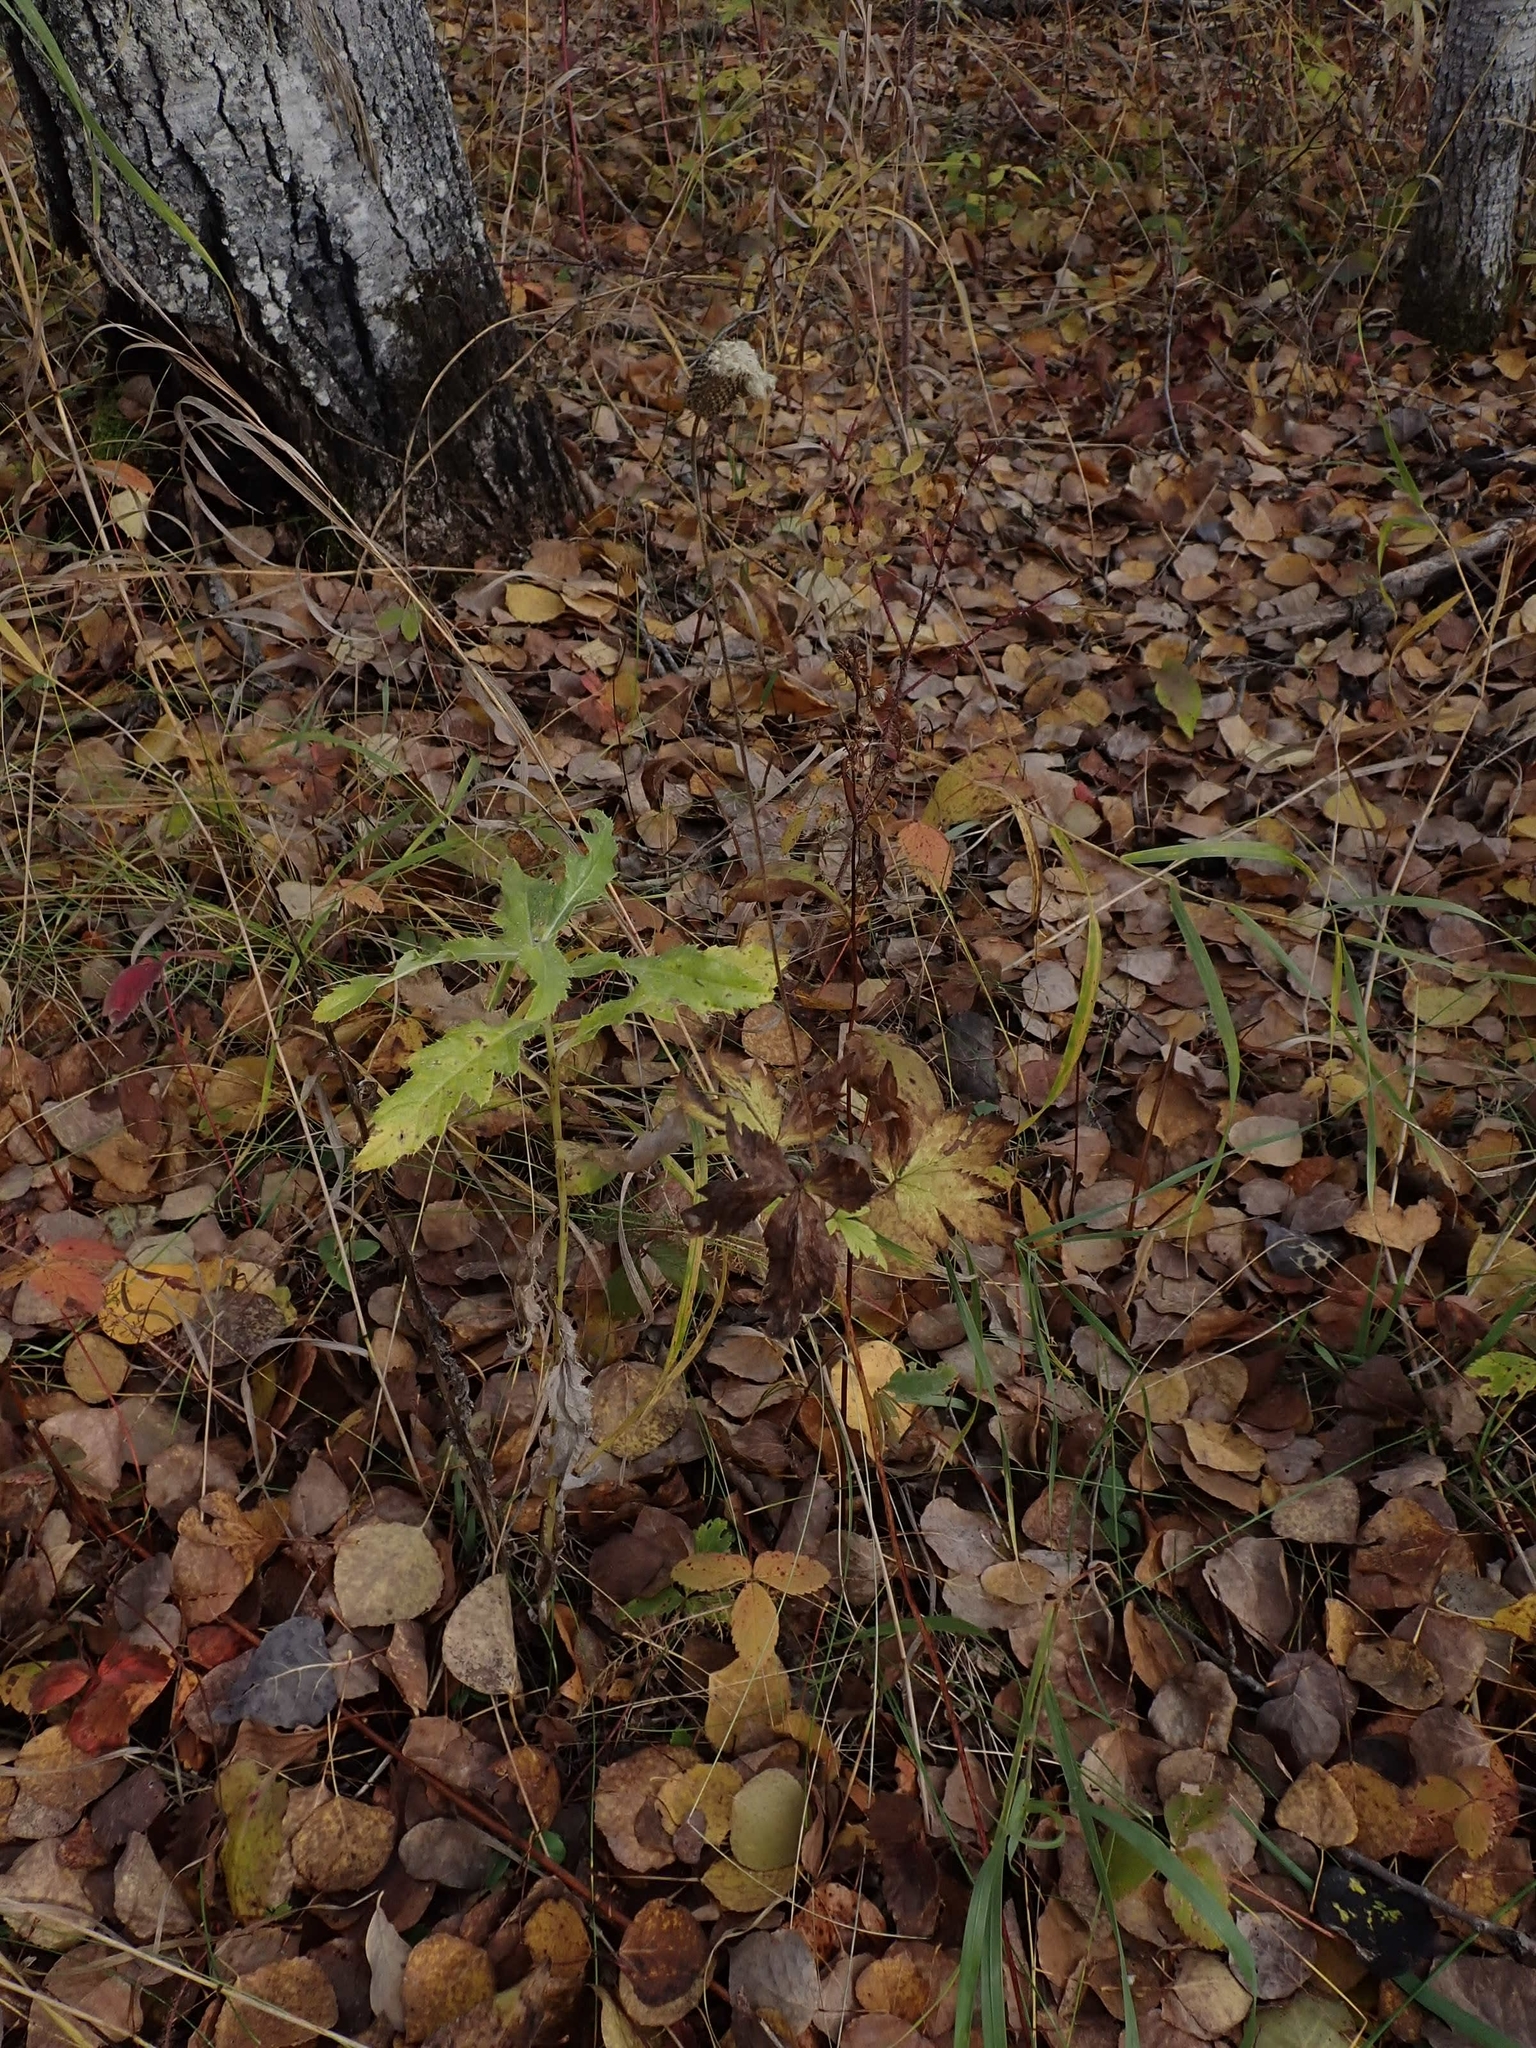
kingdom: Plantae
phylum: Tracheophyta
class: Magnoliopsida
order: Ranunculales
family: Ranunculaceae
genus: Anemone
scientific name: Anemone virginiana
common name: Tall anemone
